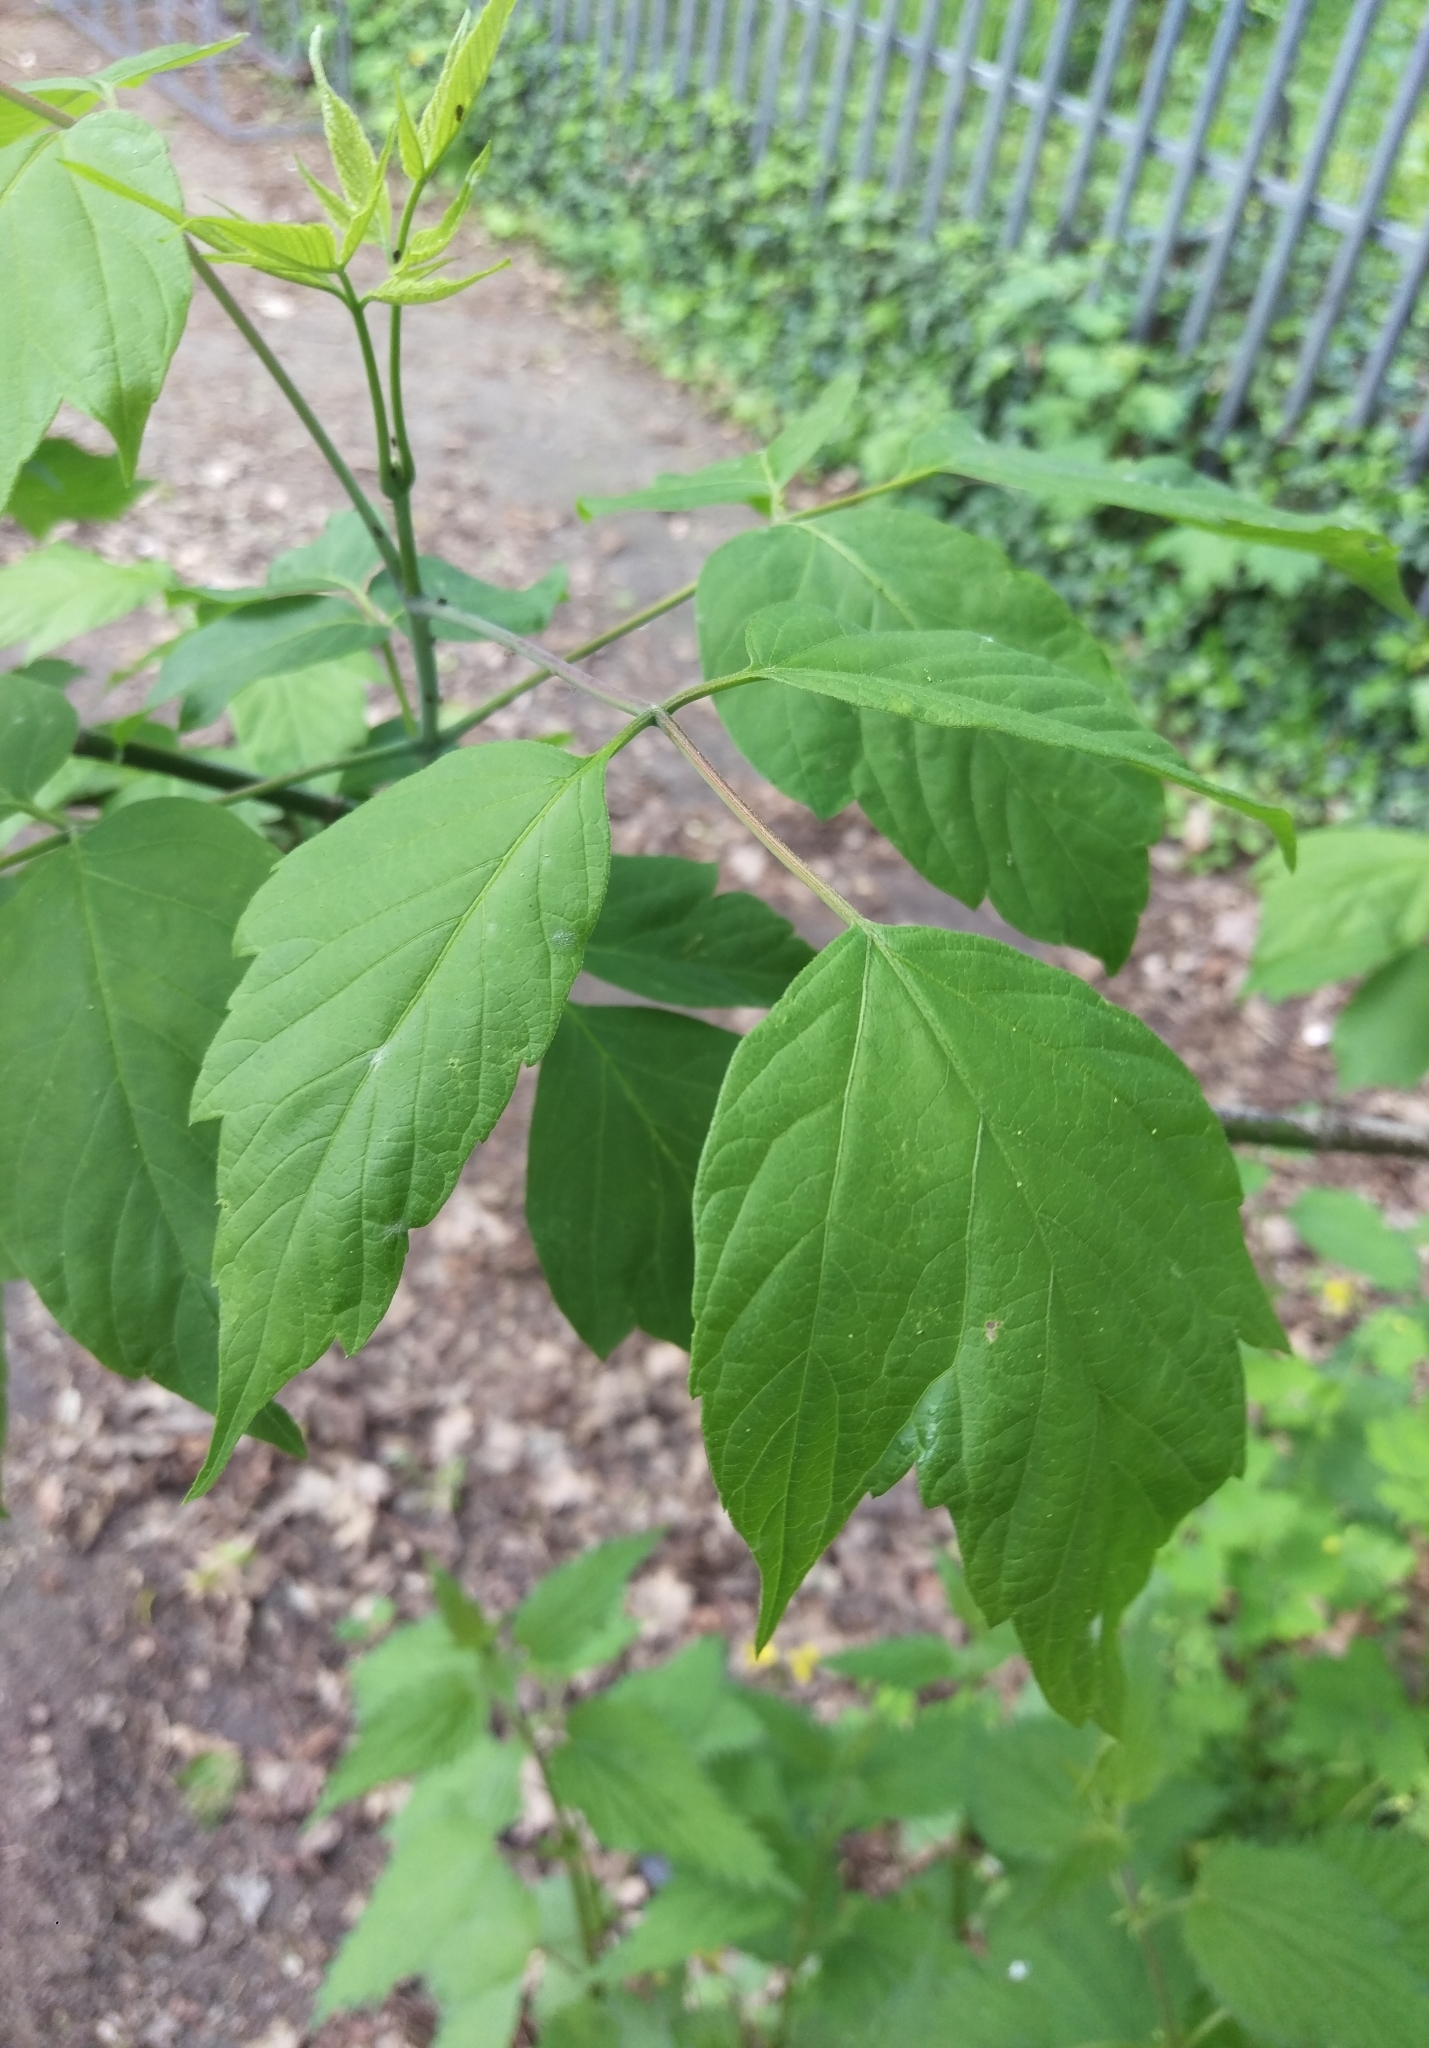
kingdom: Plantae
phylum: Tracheophyta
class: Magnoliopsida
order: Sapindales
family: Sapindaceae
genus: Acer
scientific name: Acer negundo
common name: Ashleaf maple
